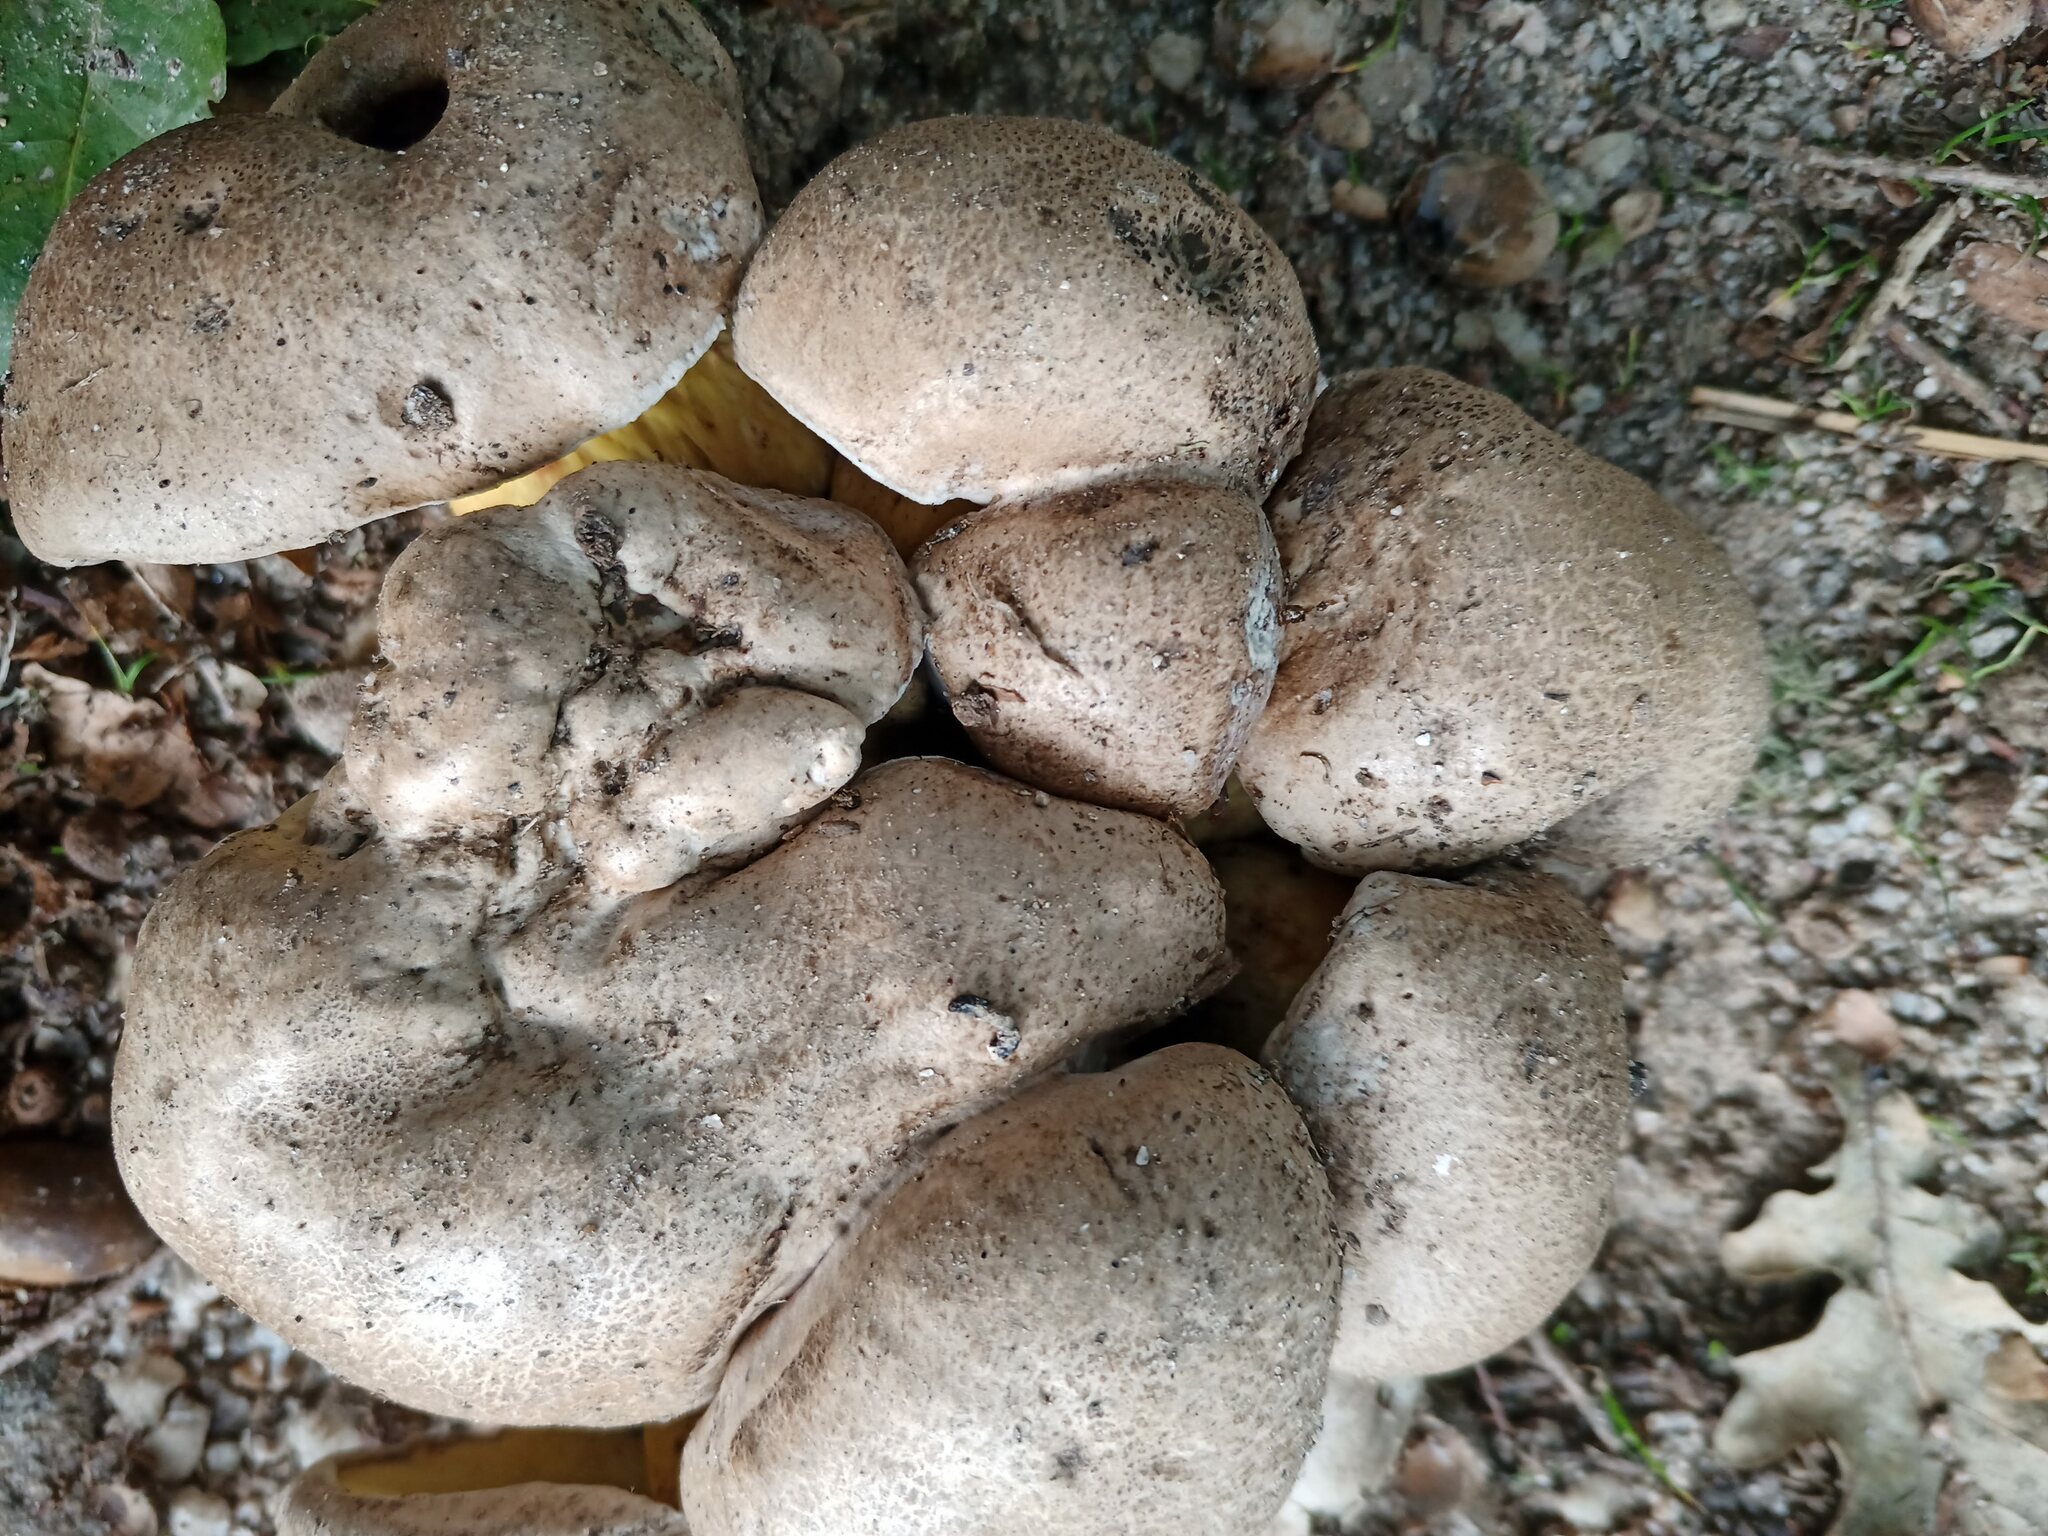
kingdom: Fungi
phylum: Basidiomycota
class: Agaricomycetes
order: Boletales
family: Boletaceae
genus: Caloboletus
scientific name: Caloboletus radicans
